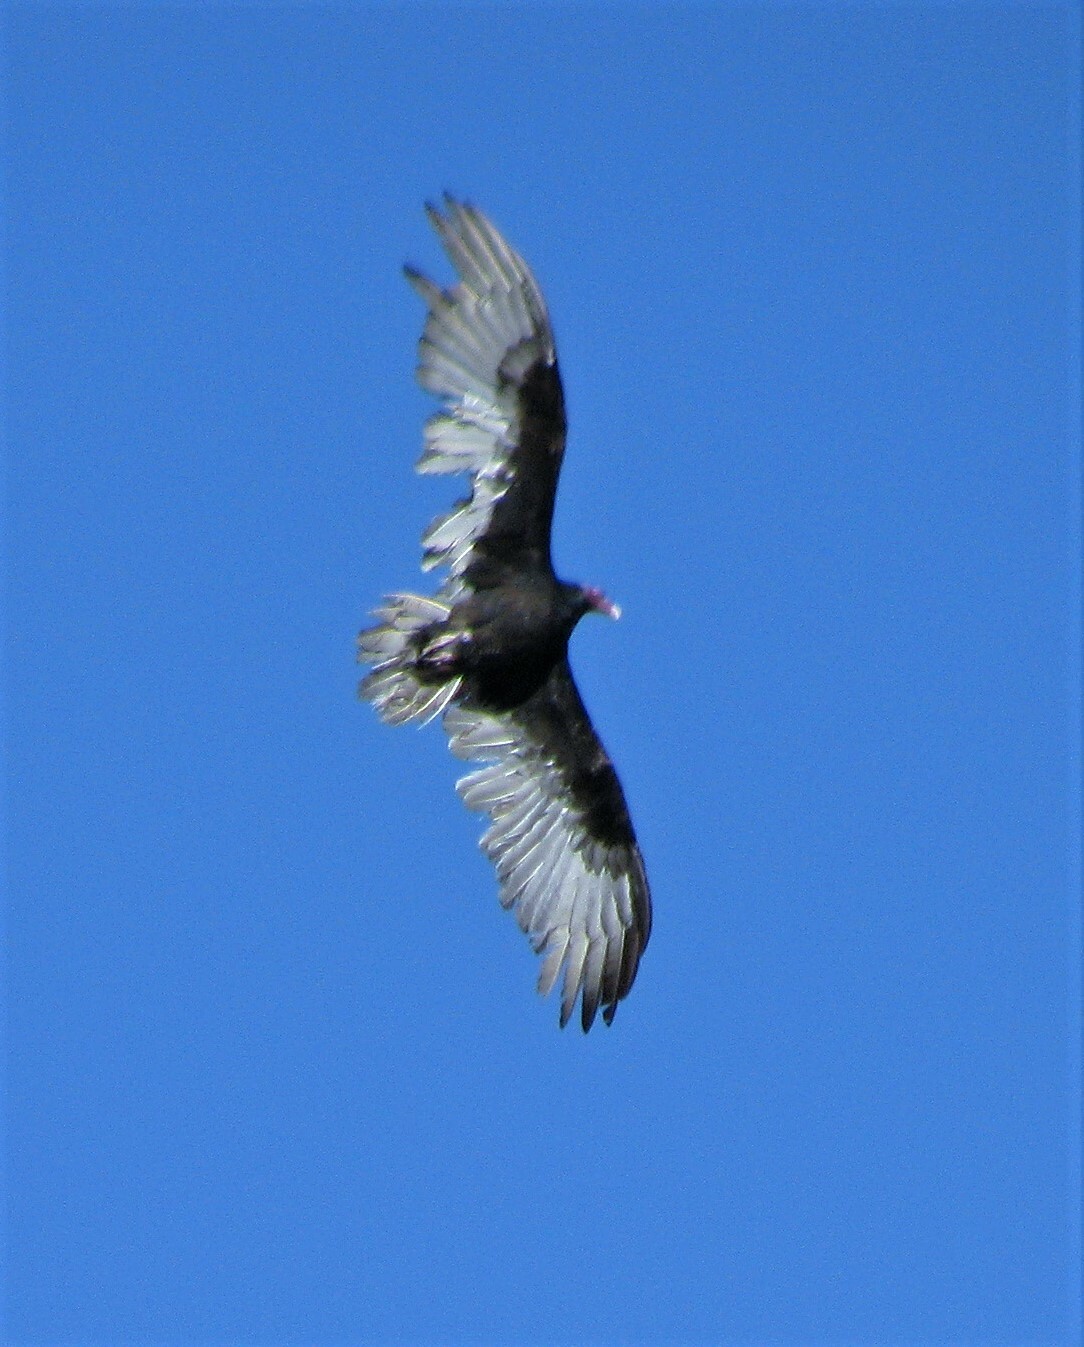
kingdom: Animalia
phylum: Chordata
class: Aves
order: Accipitriformes
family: Cathartidae
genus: Cathartes
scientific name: Cathartes aura
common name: Turkey vulture
